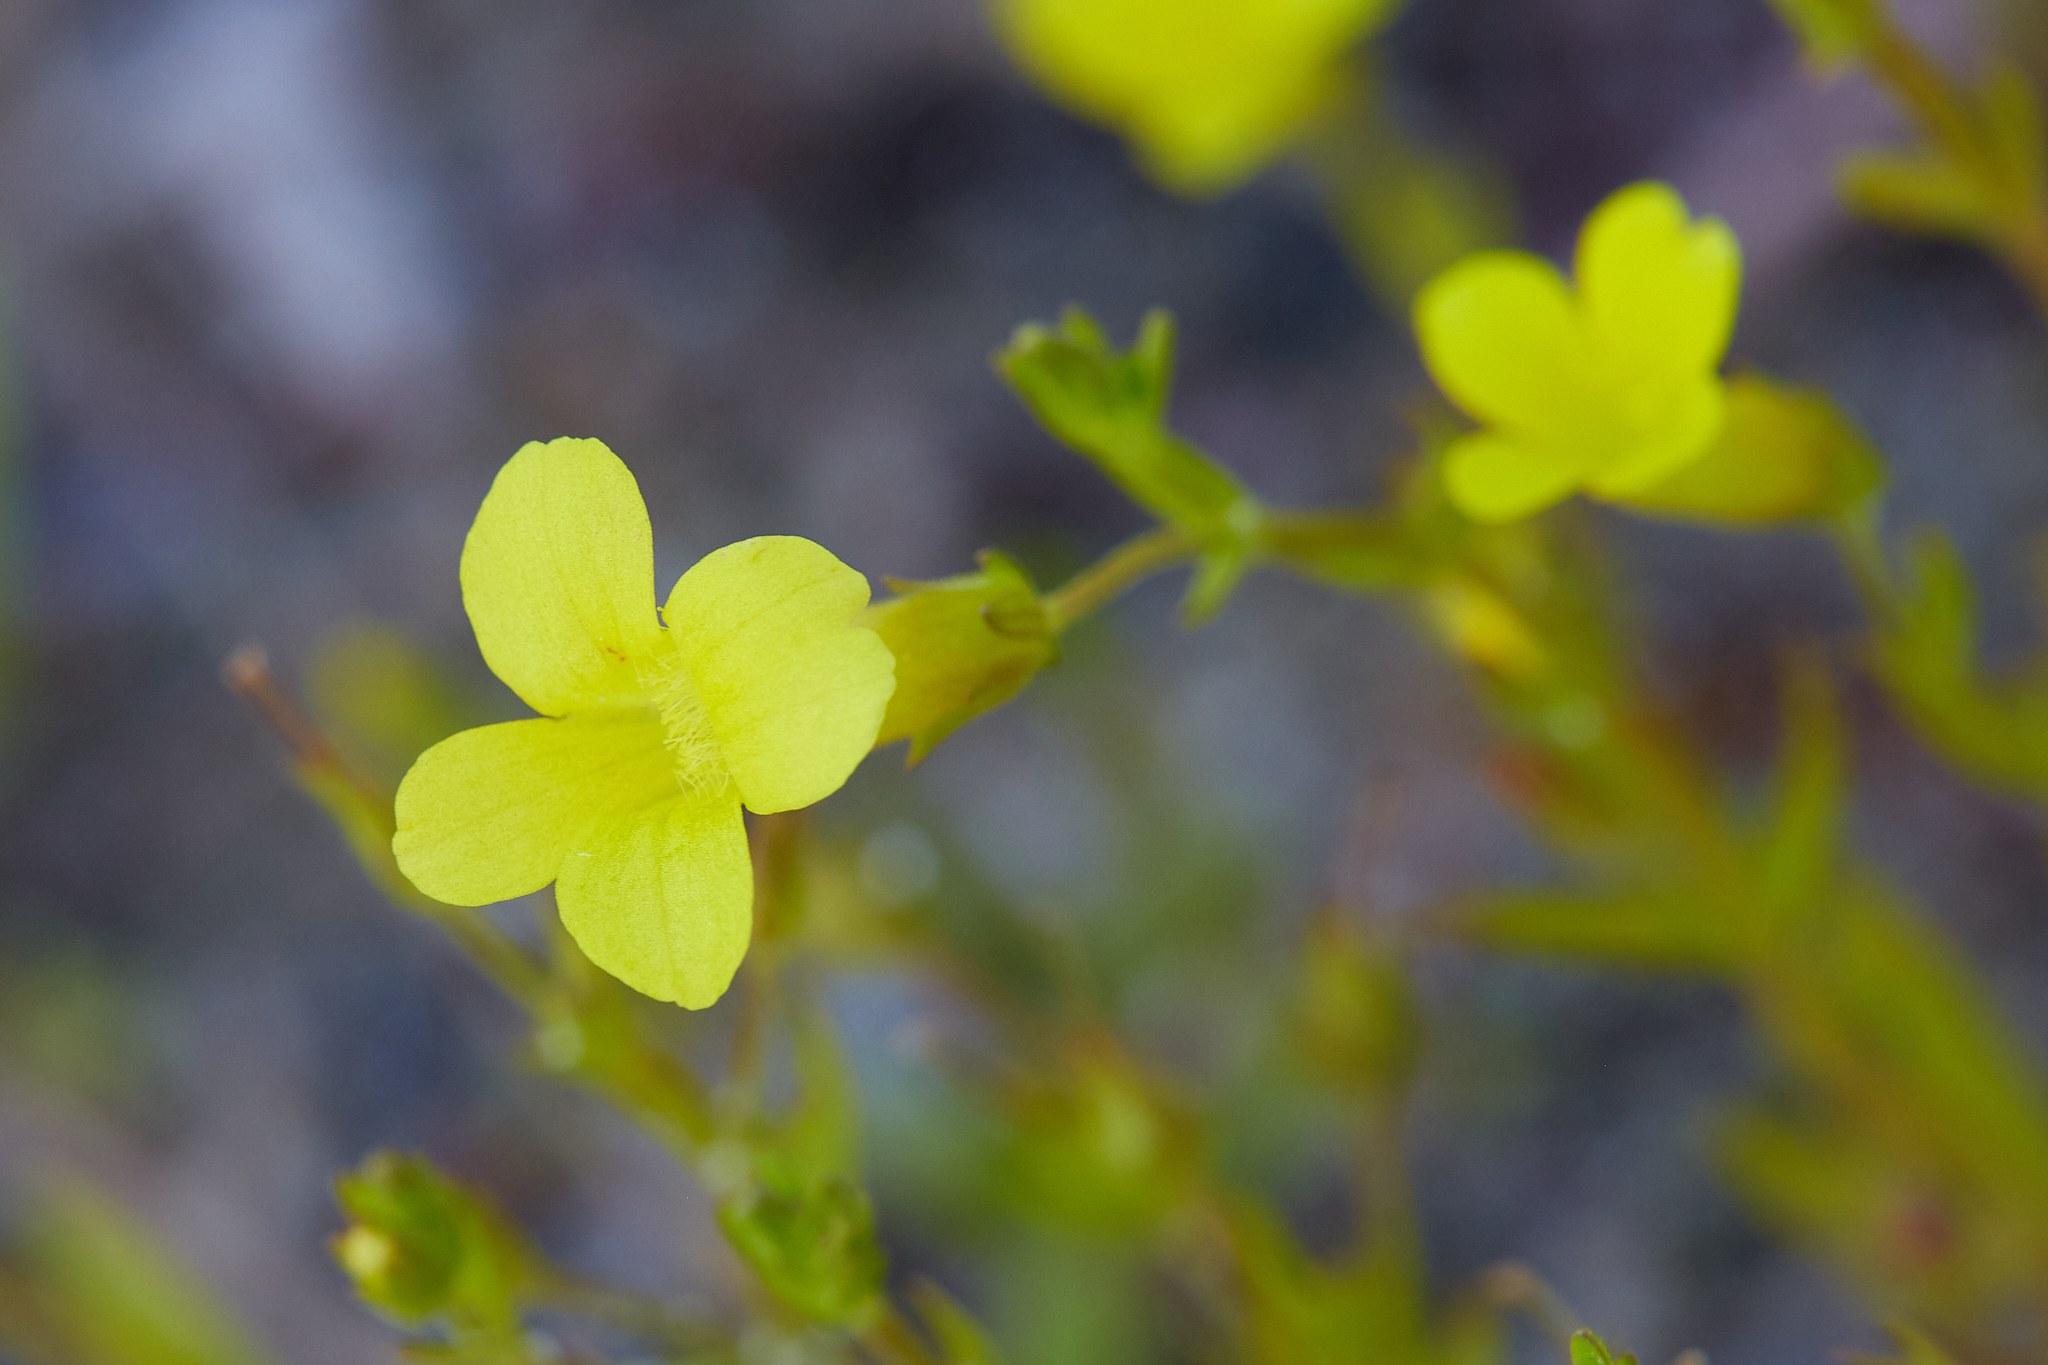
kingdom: Plantae
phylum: Tracheophyta
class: Magnoliopsida
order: Lamiales
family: Plantaginaceae
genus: Gratiola
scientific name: Gratiola lutea
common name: Golden hedge-hyssop
